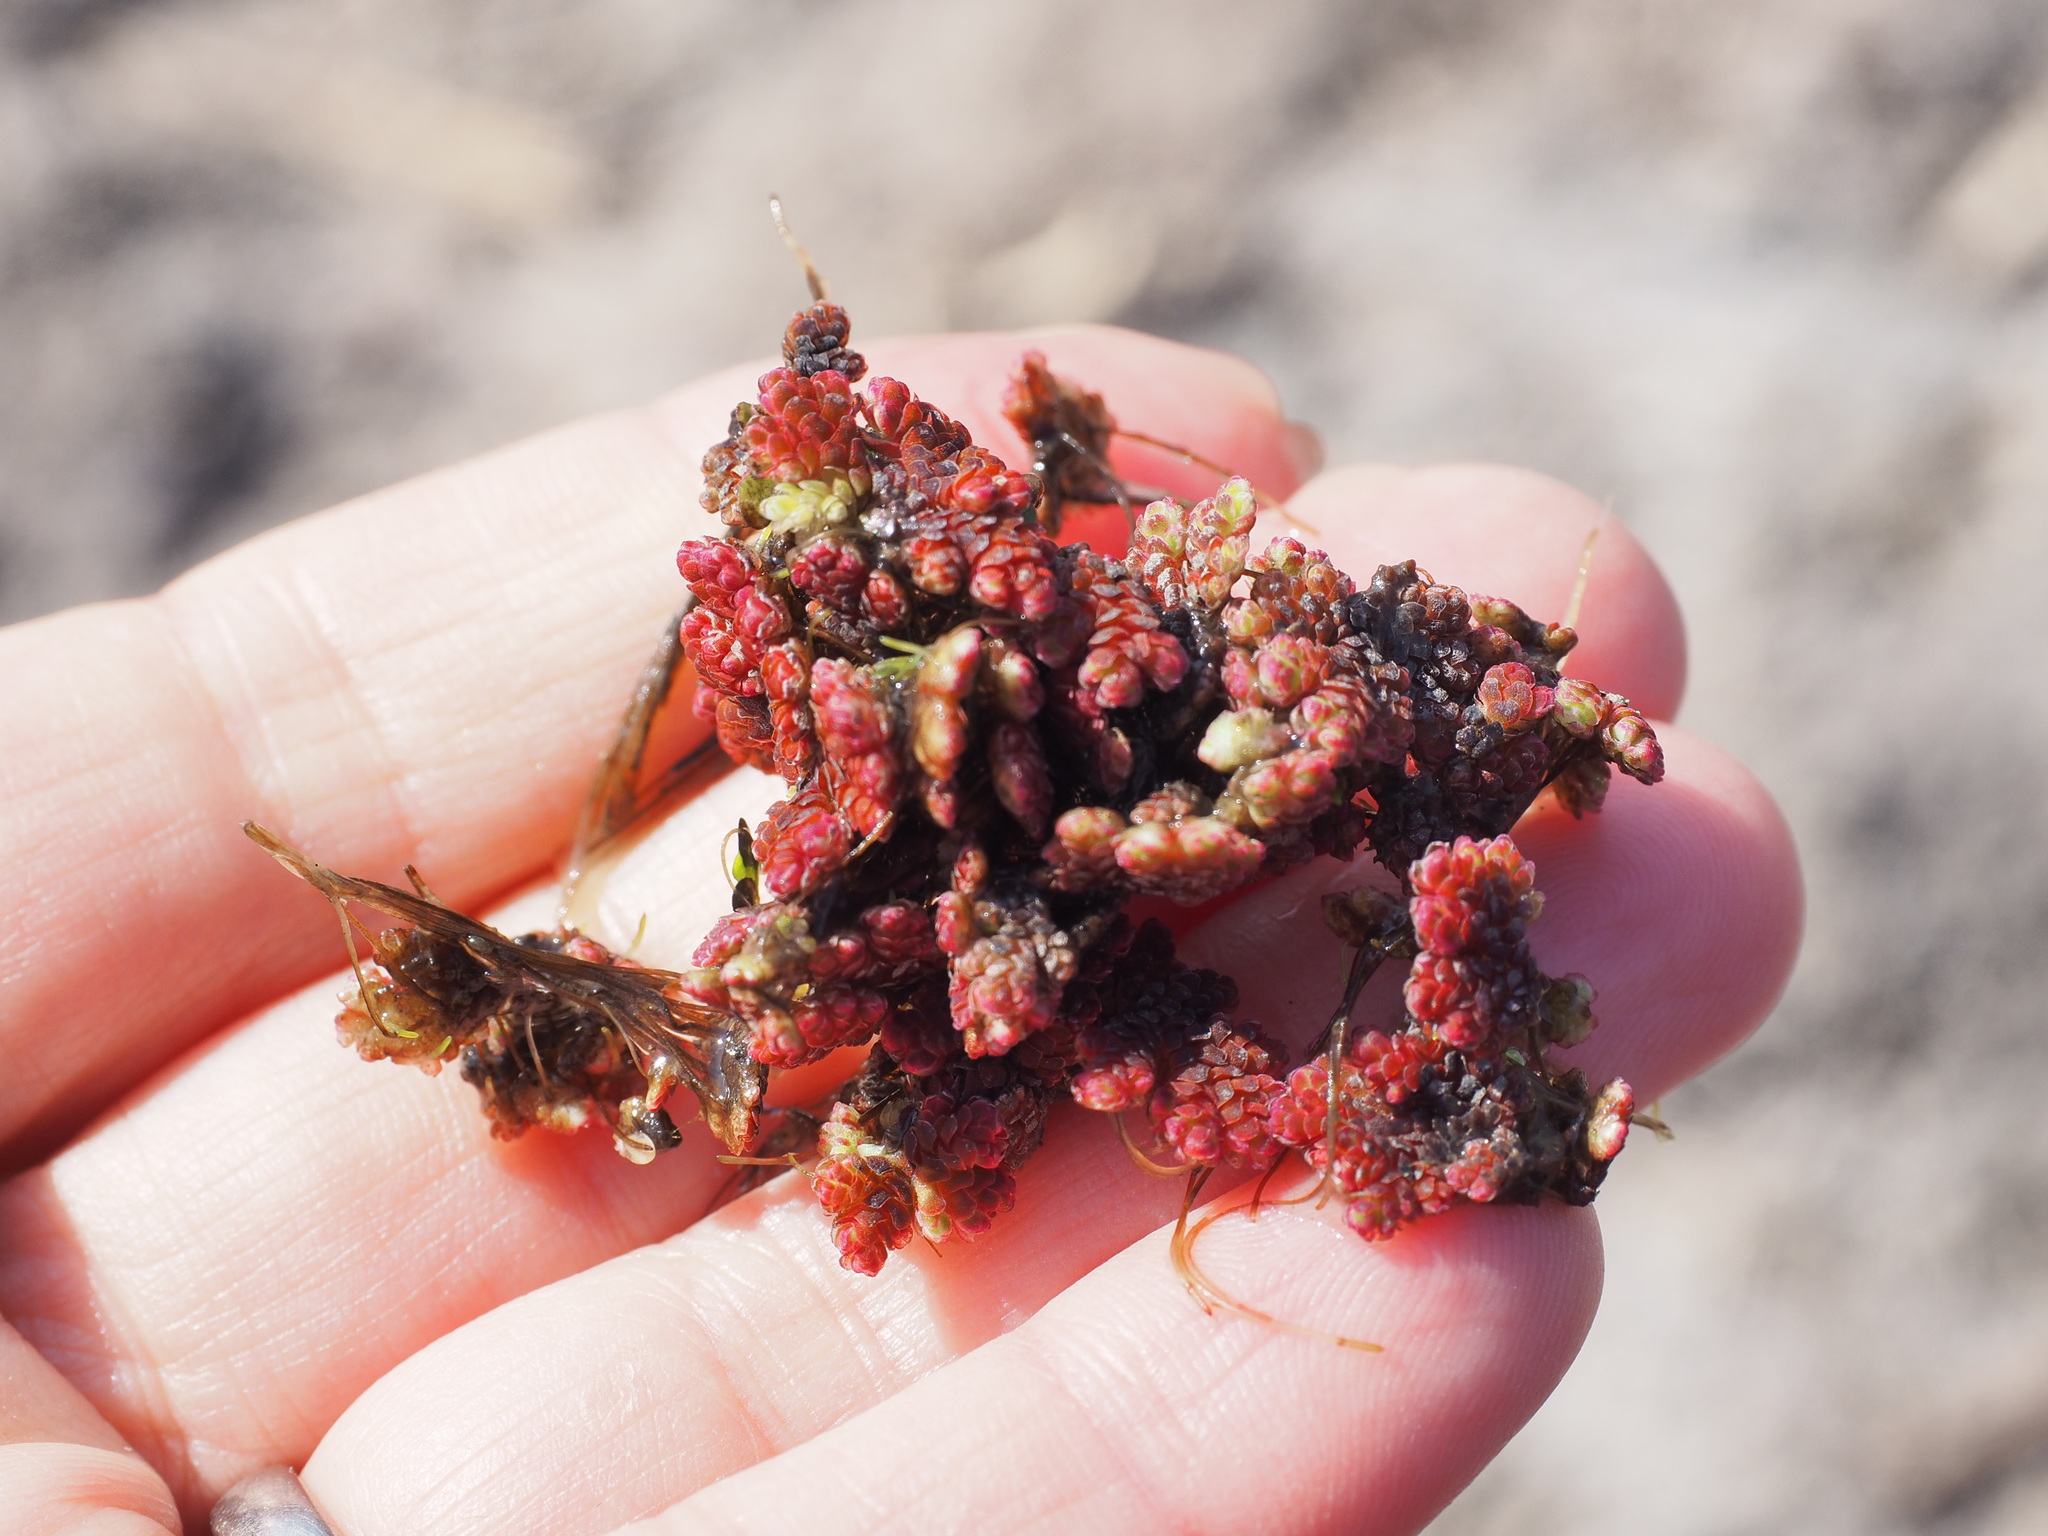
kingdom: Plantae
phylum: Tracheophyta
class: Polypodiopsida
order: Salviniales
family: Salviniaceae
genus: Azolla
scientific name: Azolla filiculoides
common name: Water fern
